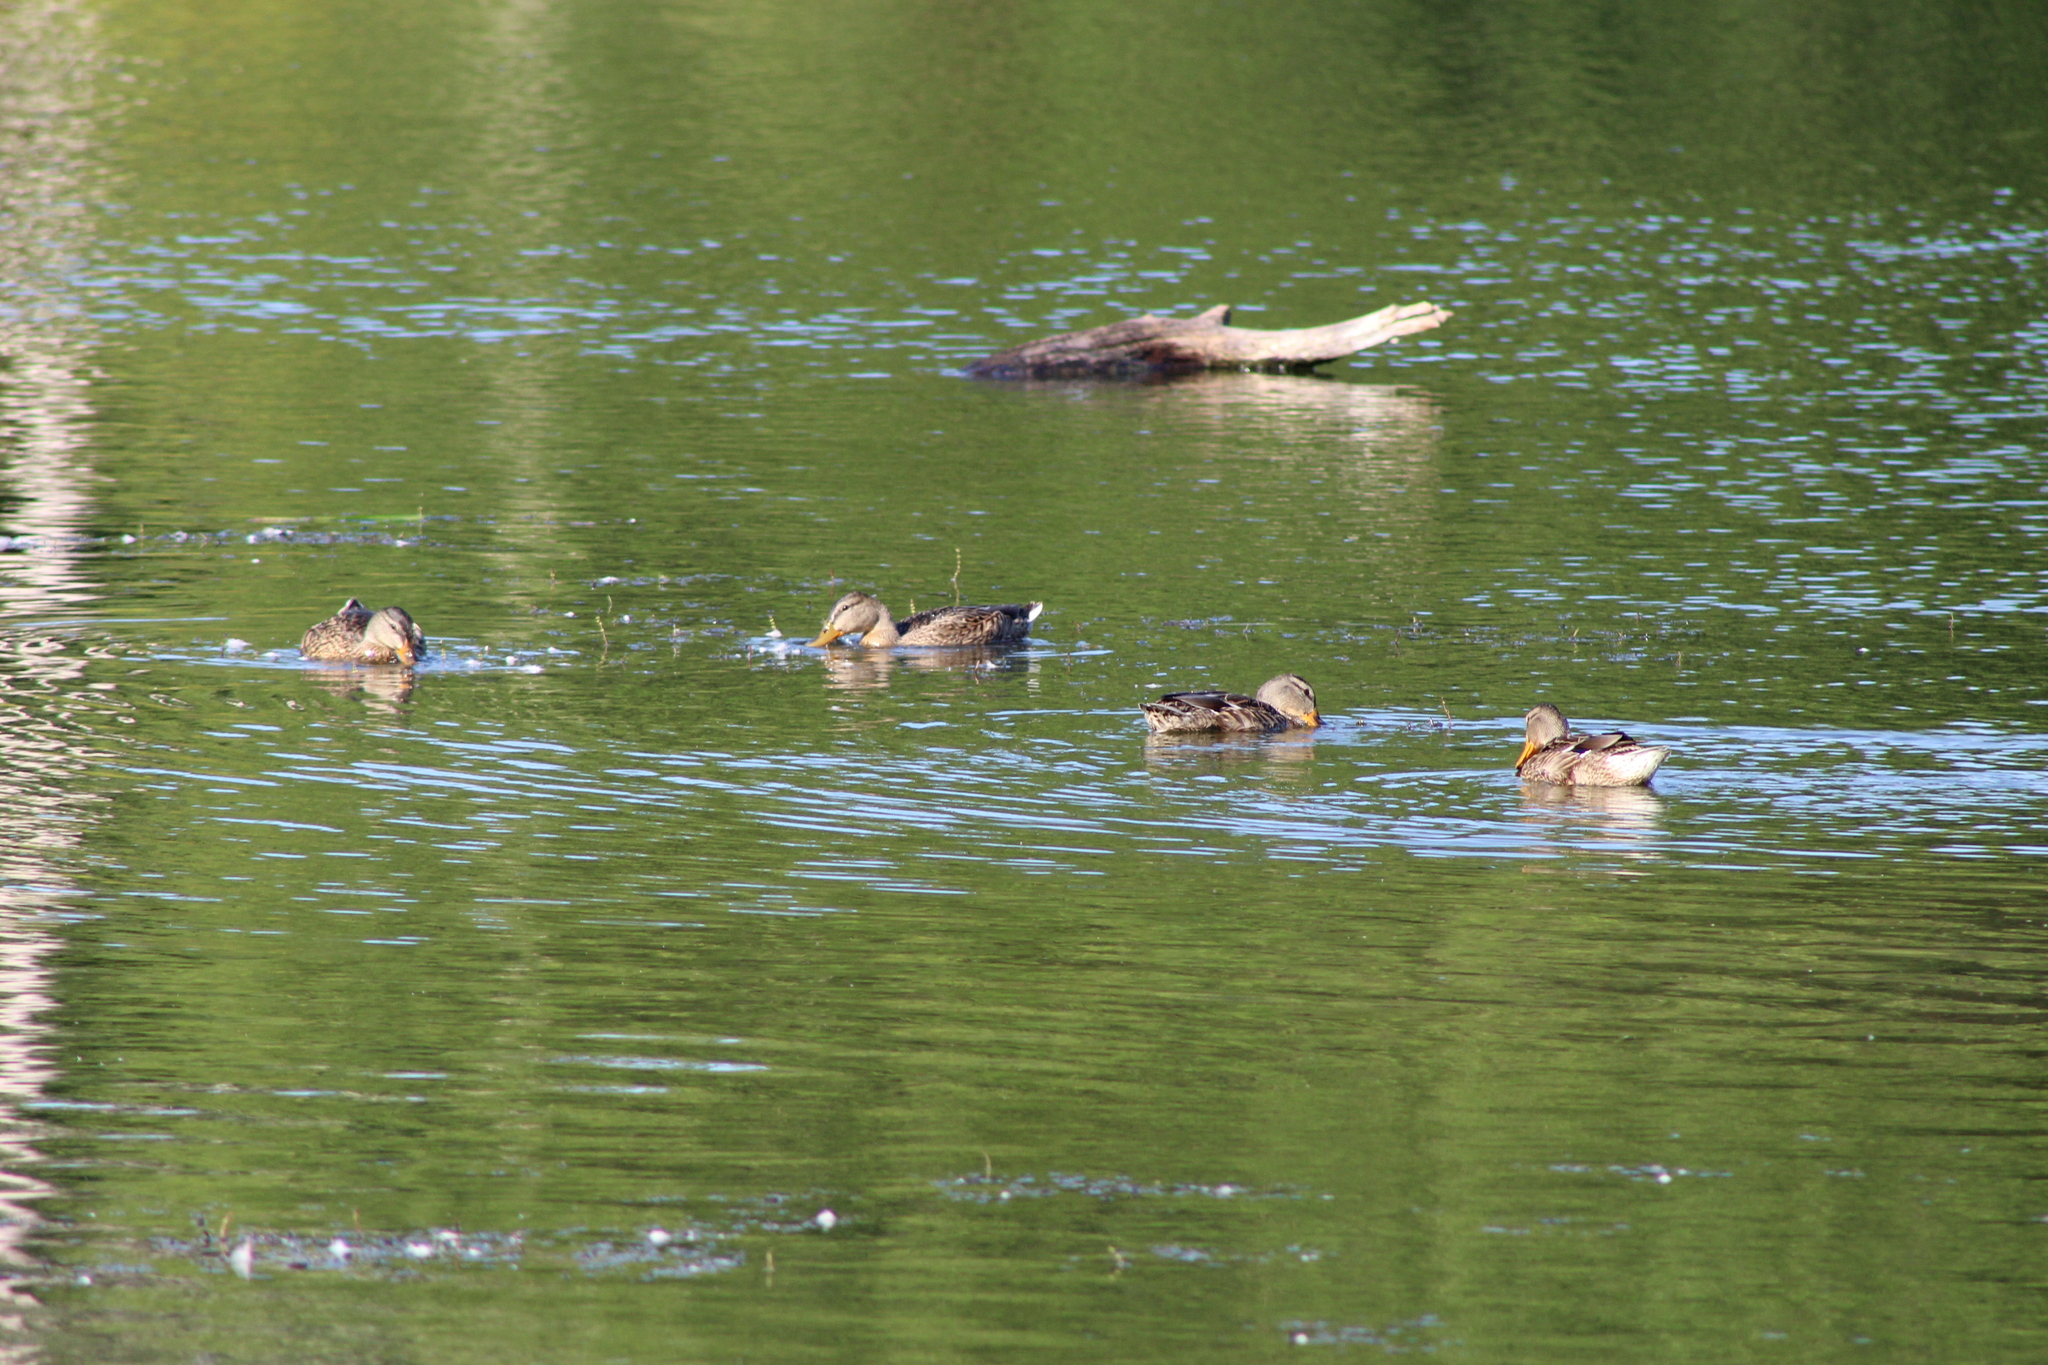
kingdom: Animalia
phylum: Chordata
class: Aves
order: Anseriformes
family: Anatidae
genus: Anas
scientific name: Anas platyrhynchos
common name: Mallard
